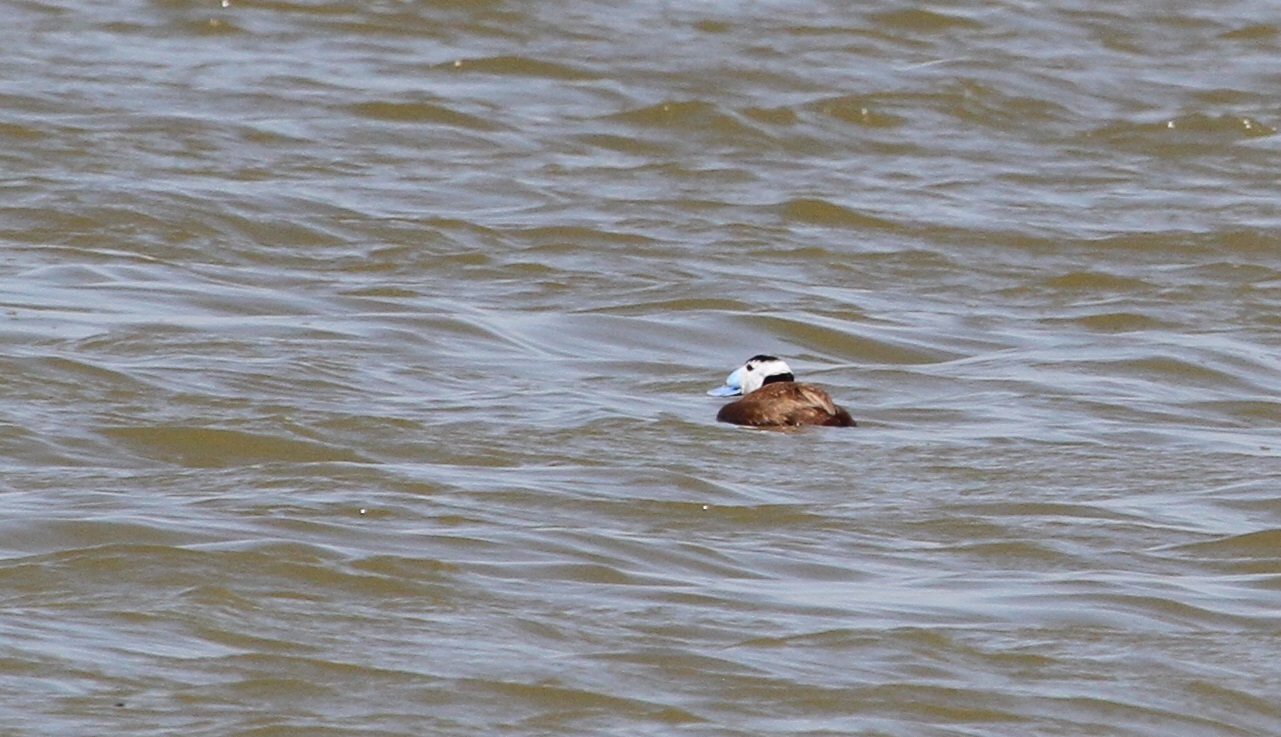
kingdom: Animalia
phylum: Chordata
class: Aves
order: Anseriformes
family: Anatidae
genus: Oxyura
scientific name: Oxyura leucocephala
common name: White-headed duck
